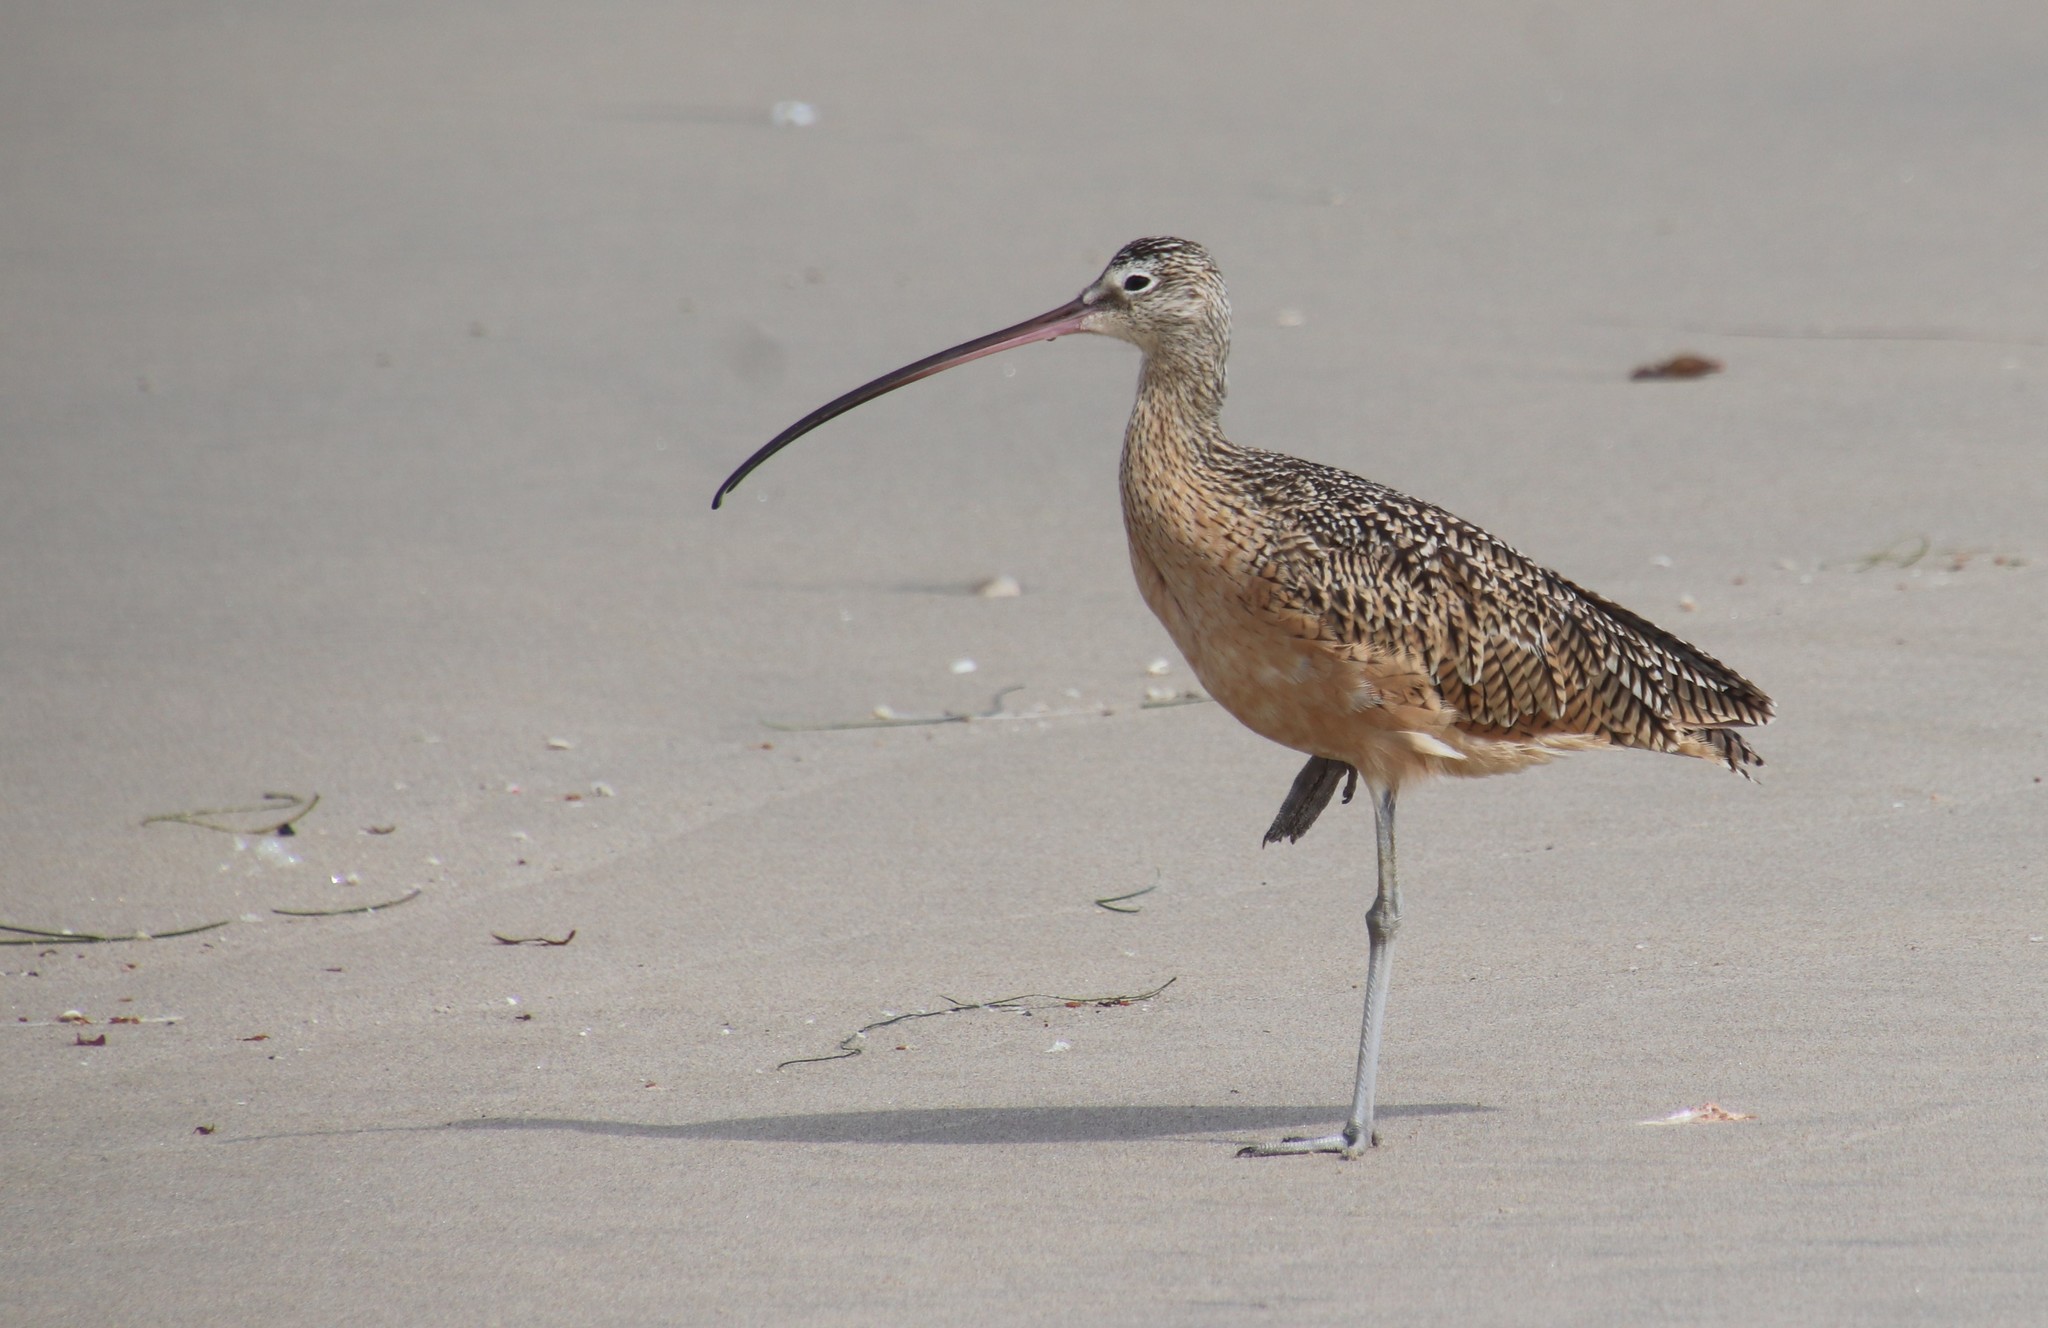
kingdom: Animalia
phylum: Chordata
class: Aves
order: Charadriiformes
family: Scolopacidae
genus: Numenius
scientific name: Numenius americanus
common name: Long-billed curlew
